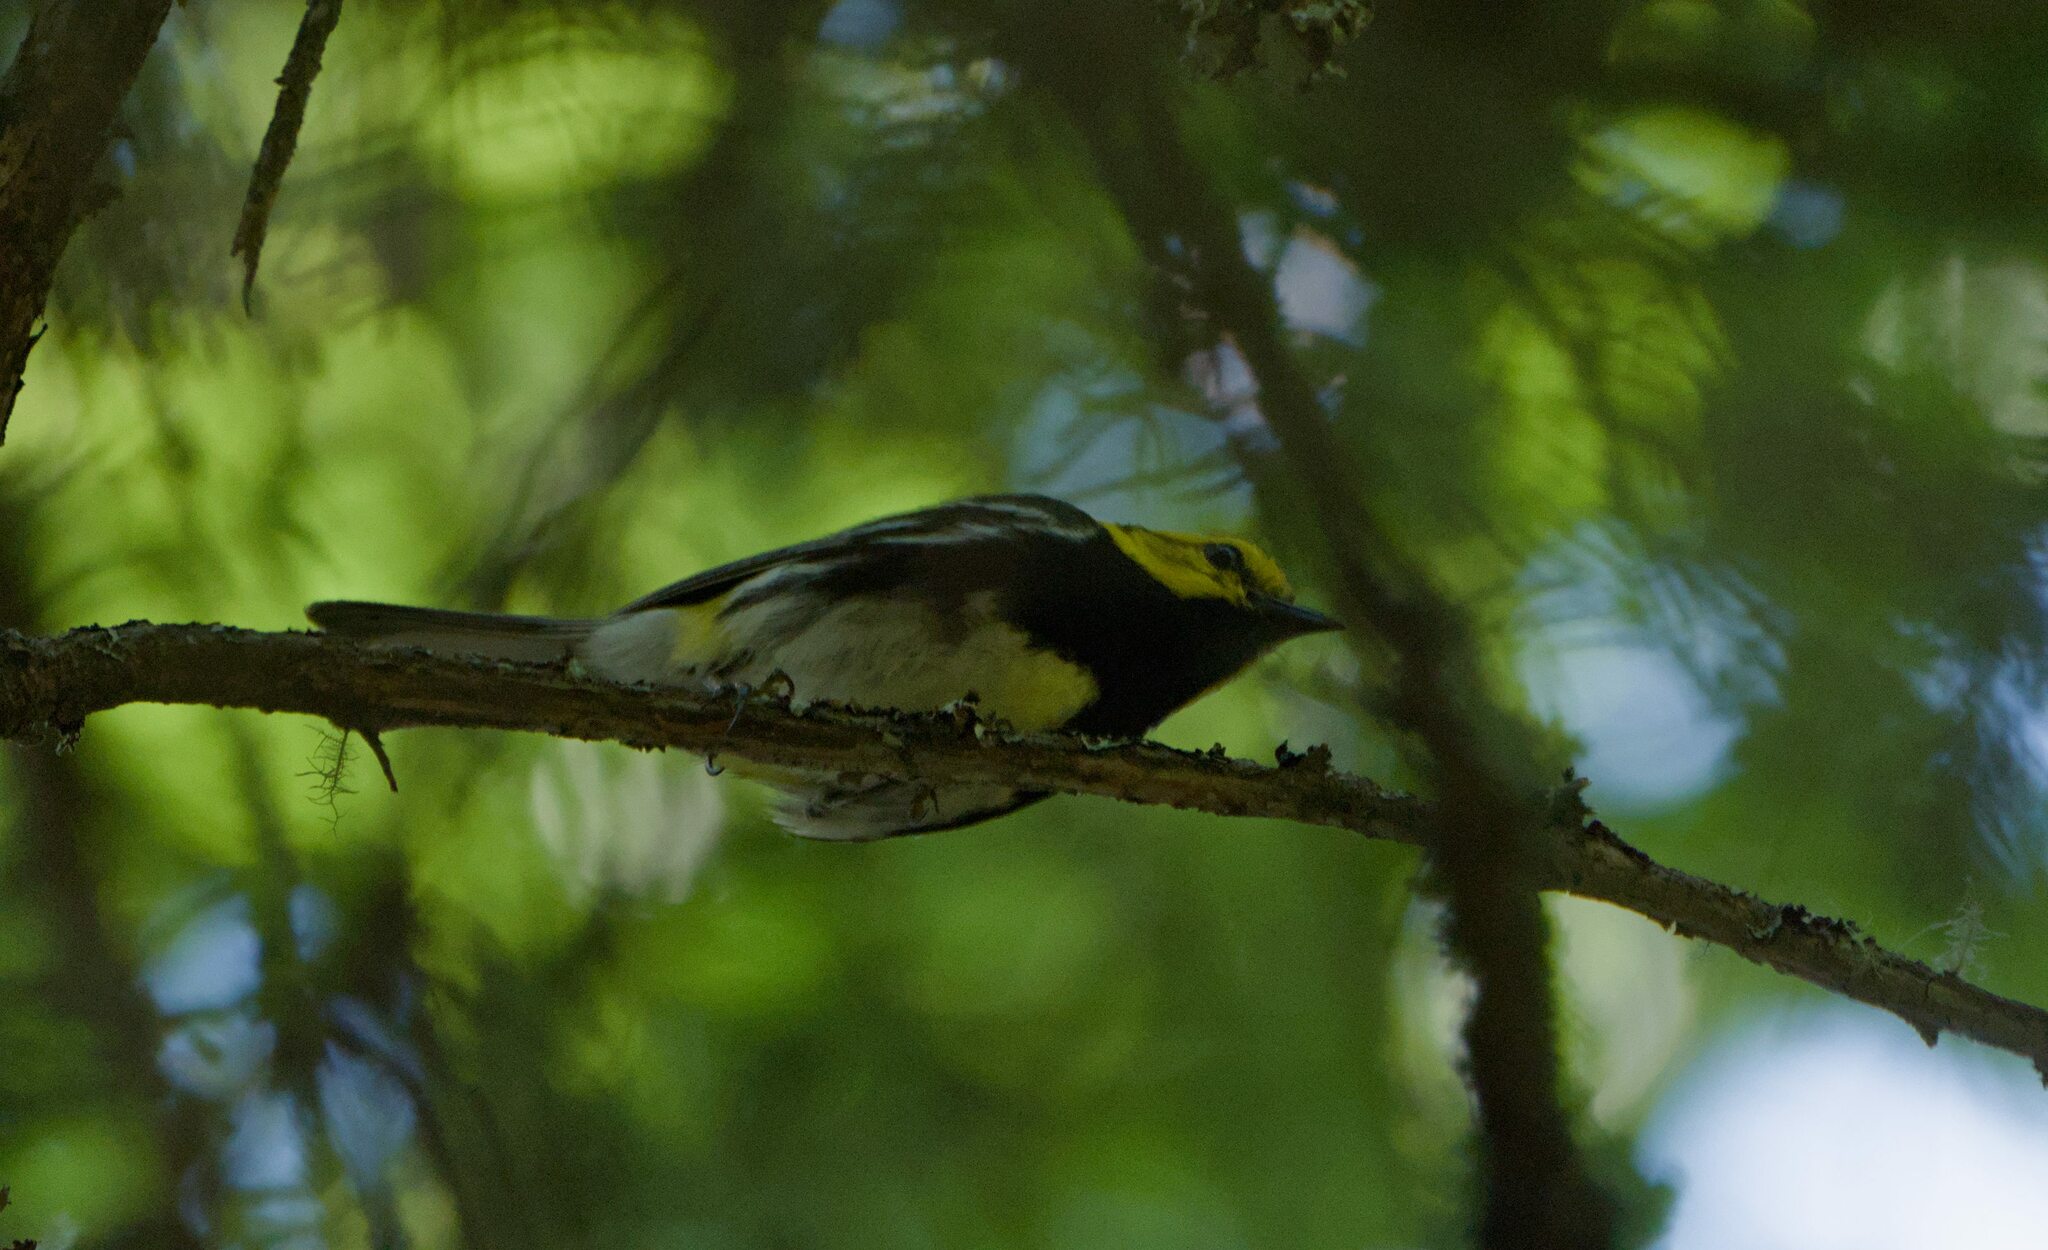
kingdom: Animalia
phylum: Chordata
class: Aves
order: Passeriformes
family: Parulidae
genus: Setophaga
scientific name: Setophaga virens
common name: Black-throated green warbler
